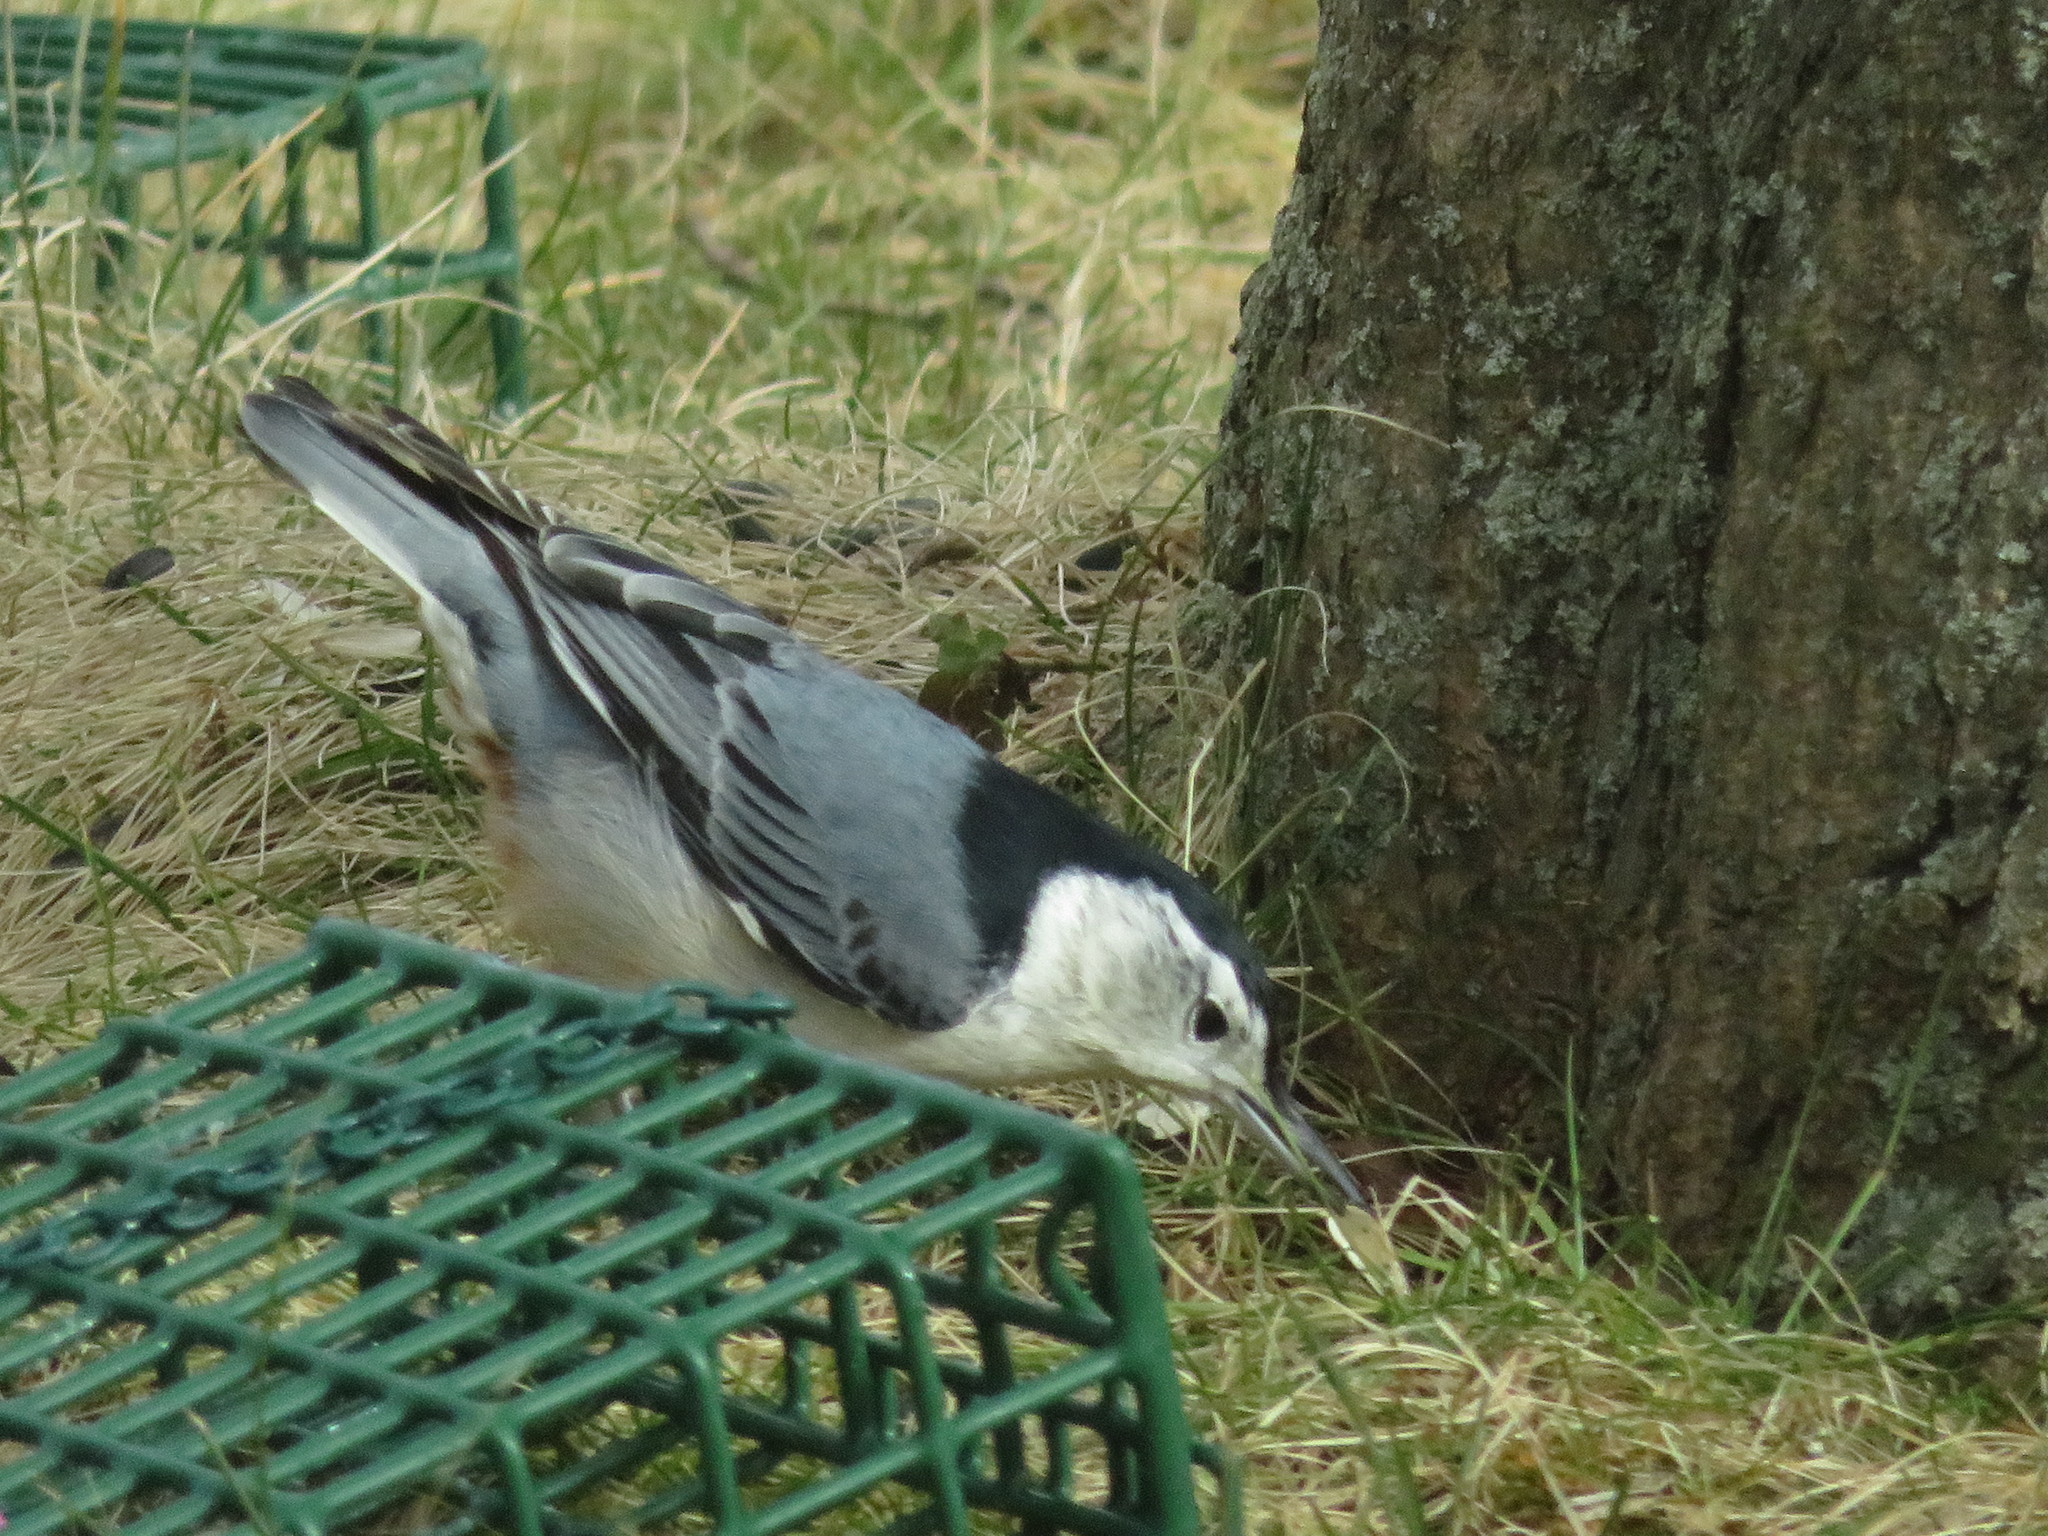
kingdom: Animalia
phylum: Chordata
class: Aves
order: Passeriformes
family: Sittidae
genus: Sitta
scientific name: Sitta carolinensis
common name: White-breasted nuthatch
